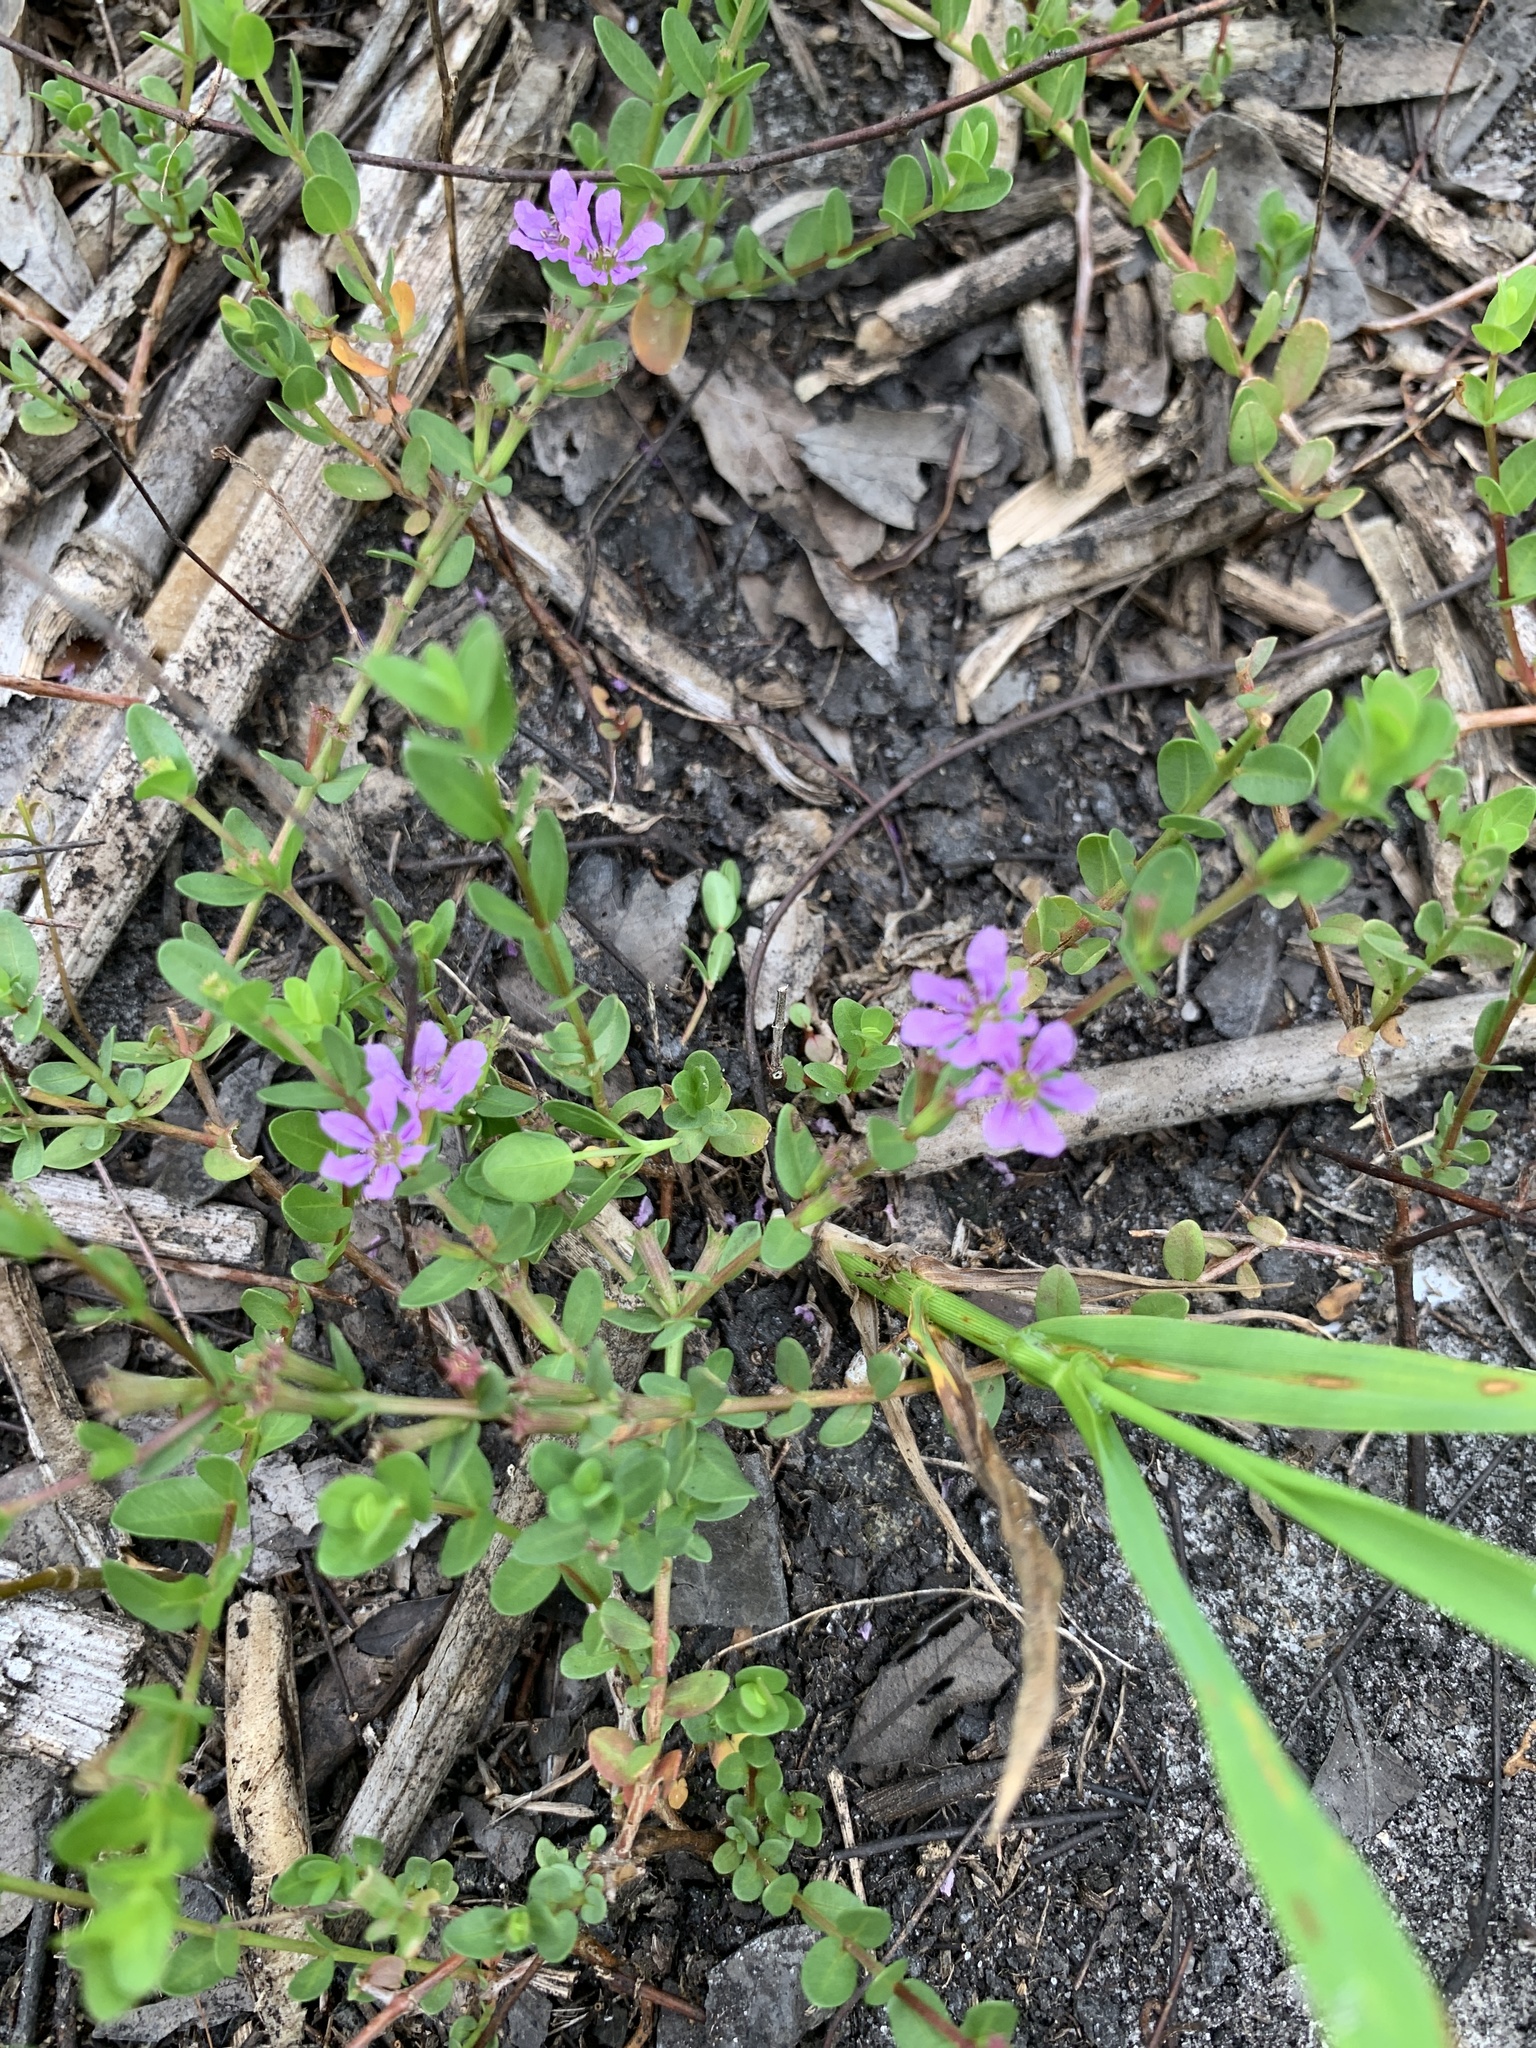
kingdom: Plantae
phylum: Tracheophyta
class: Magnoliopsida
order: Myrtales
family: Lythraceae
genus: Lythrum
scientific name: Lythrum alatum
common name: Winged loosestrife
